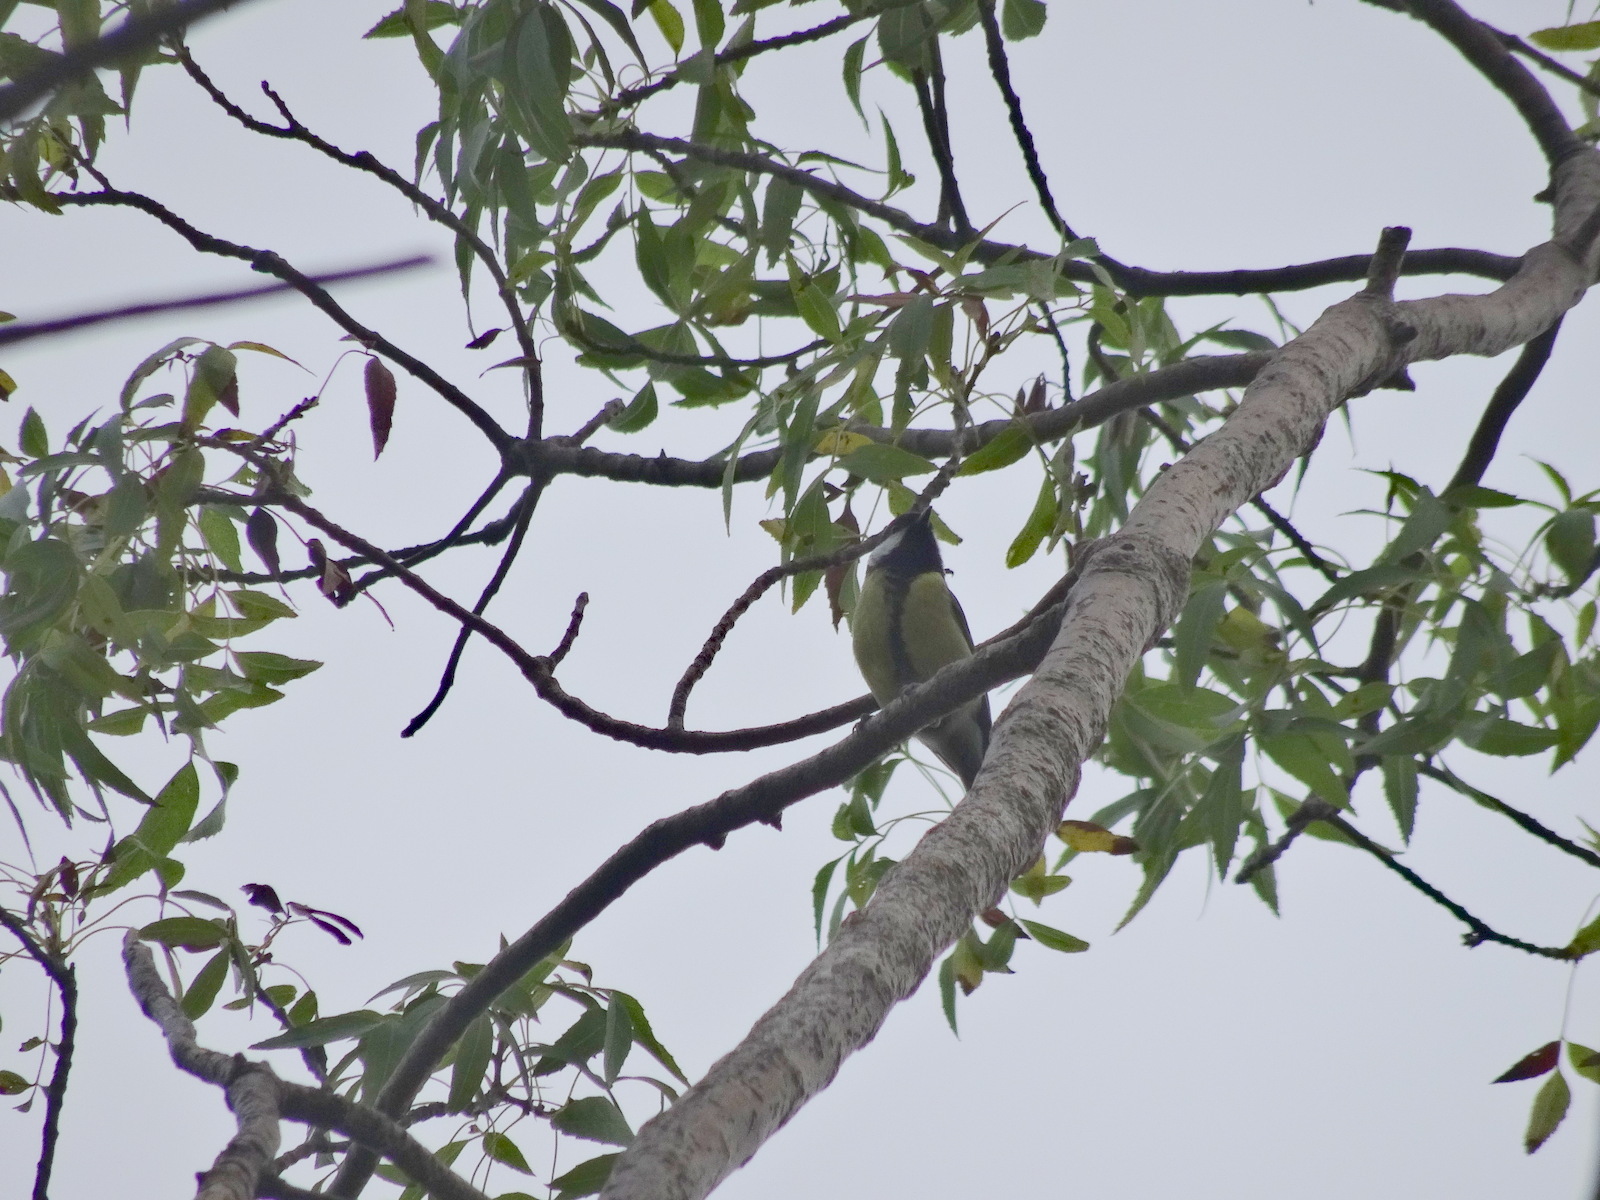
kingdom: Animalia
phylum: Chordata
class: Aves
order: Passeriformes
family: Paridae
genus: Parus
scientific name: Parus major
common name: Great tit
